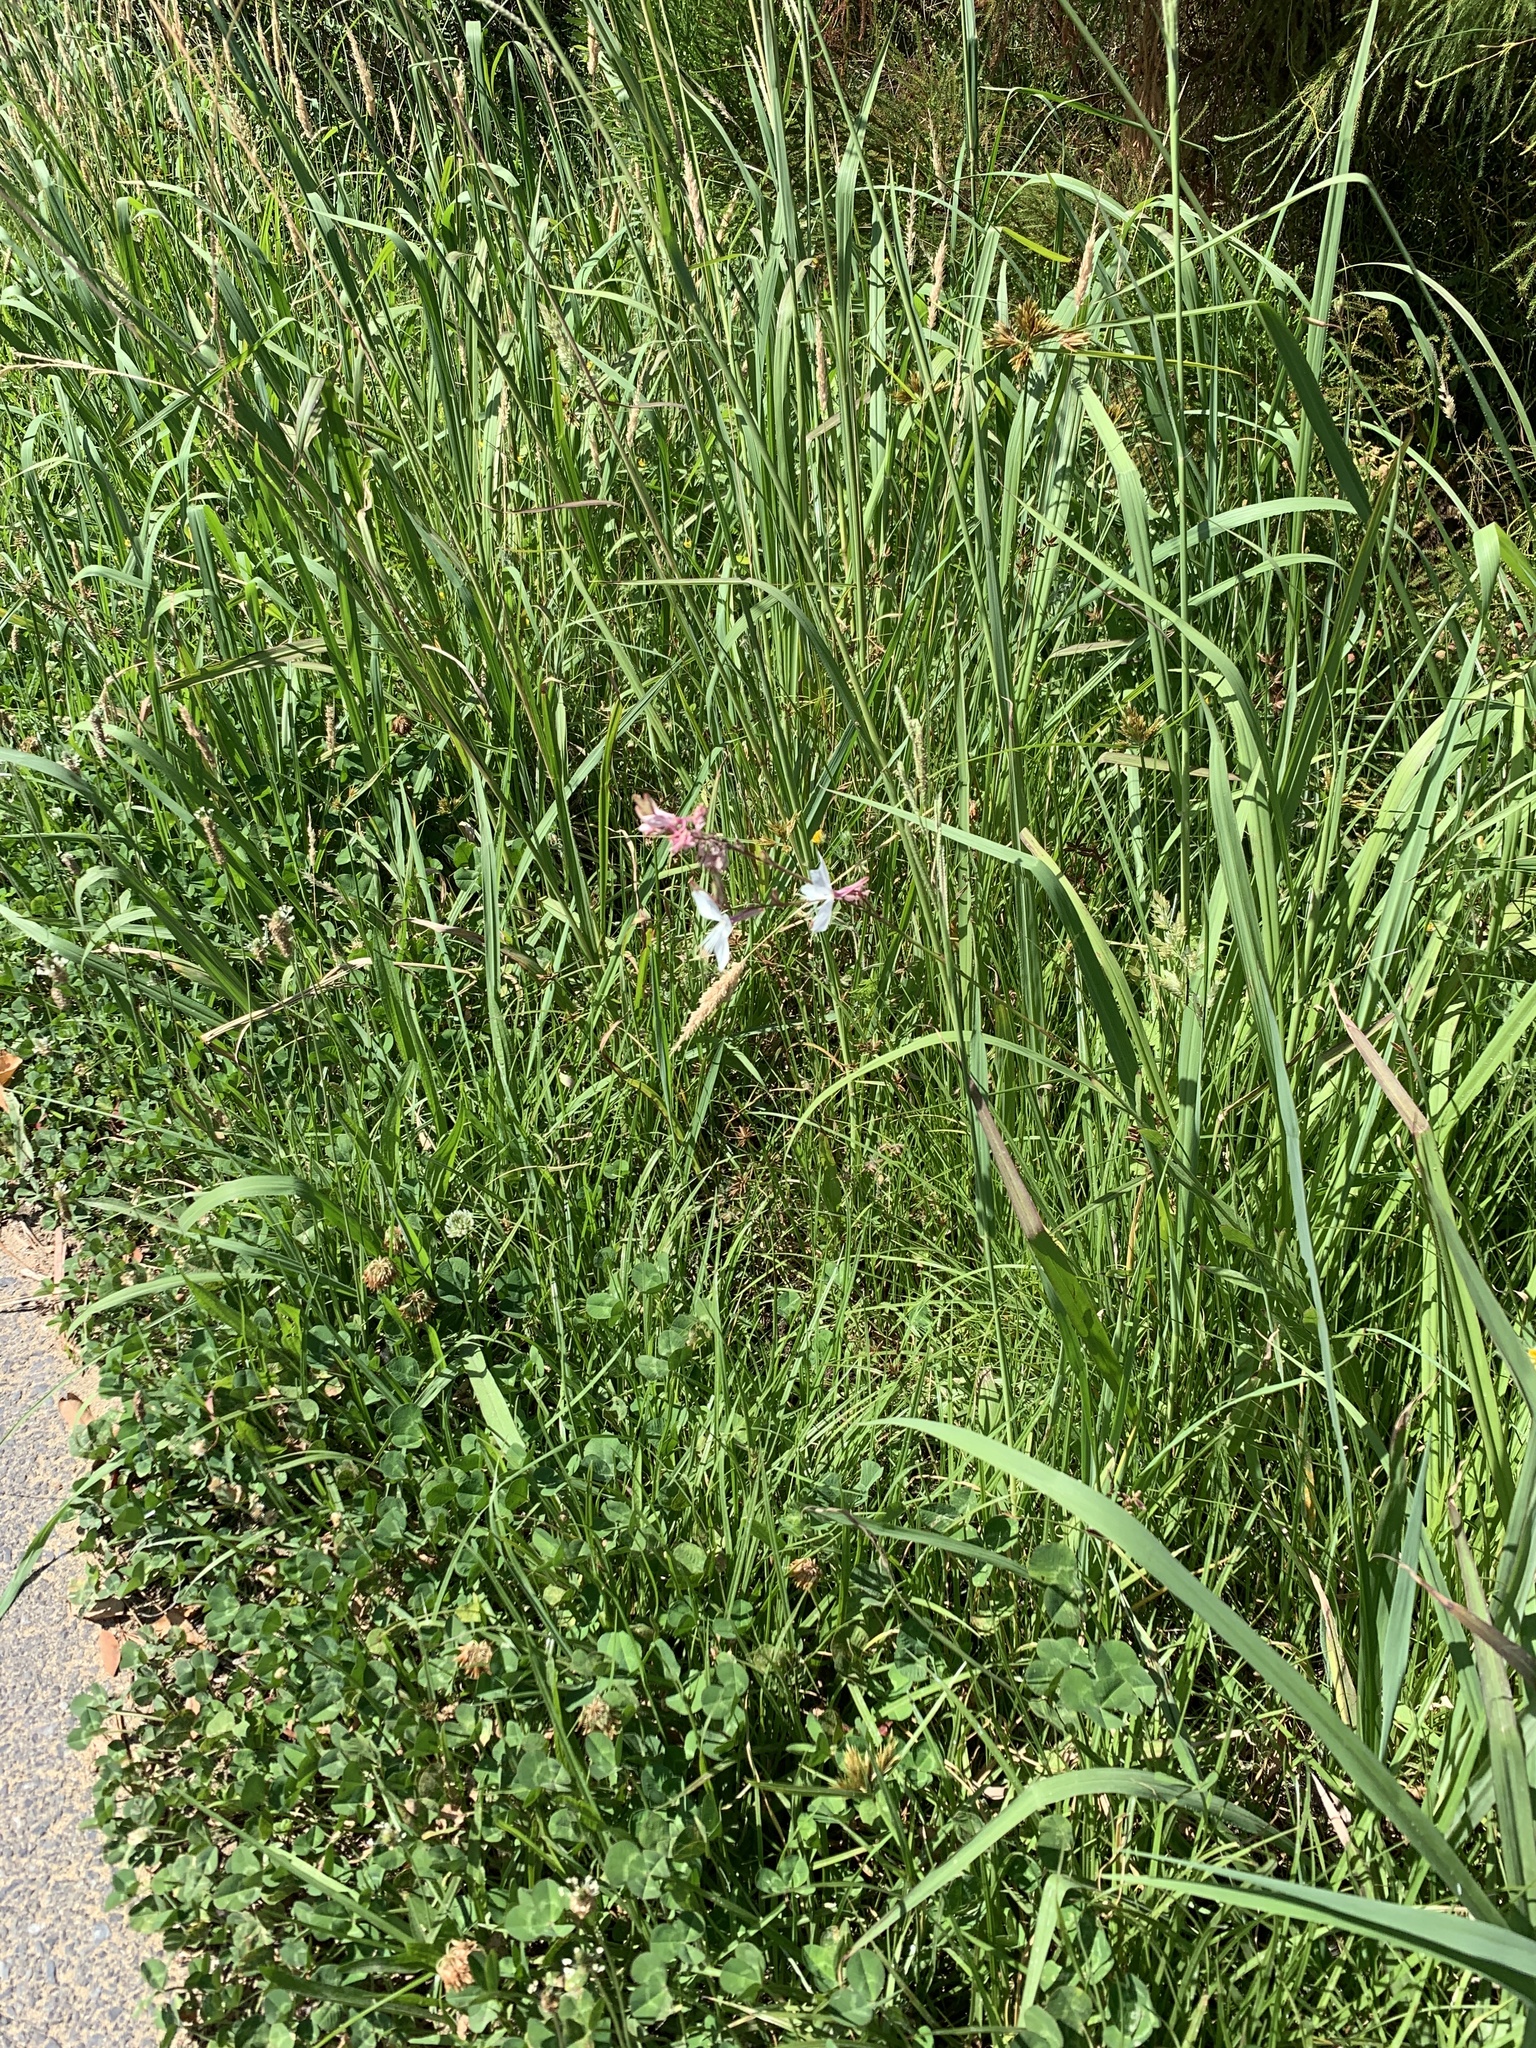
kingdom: Plantae
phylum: Tracheophyta
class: Magnoliopsida
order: Myrtales
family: Onagraceae
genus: Oenothera
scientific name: Oenothera lindheimeri
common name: Lindheimer's beeblossom
